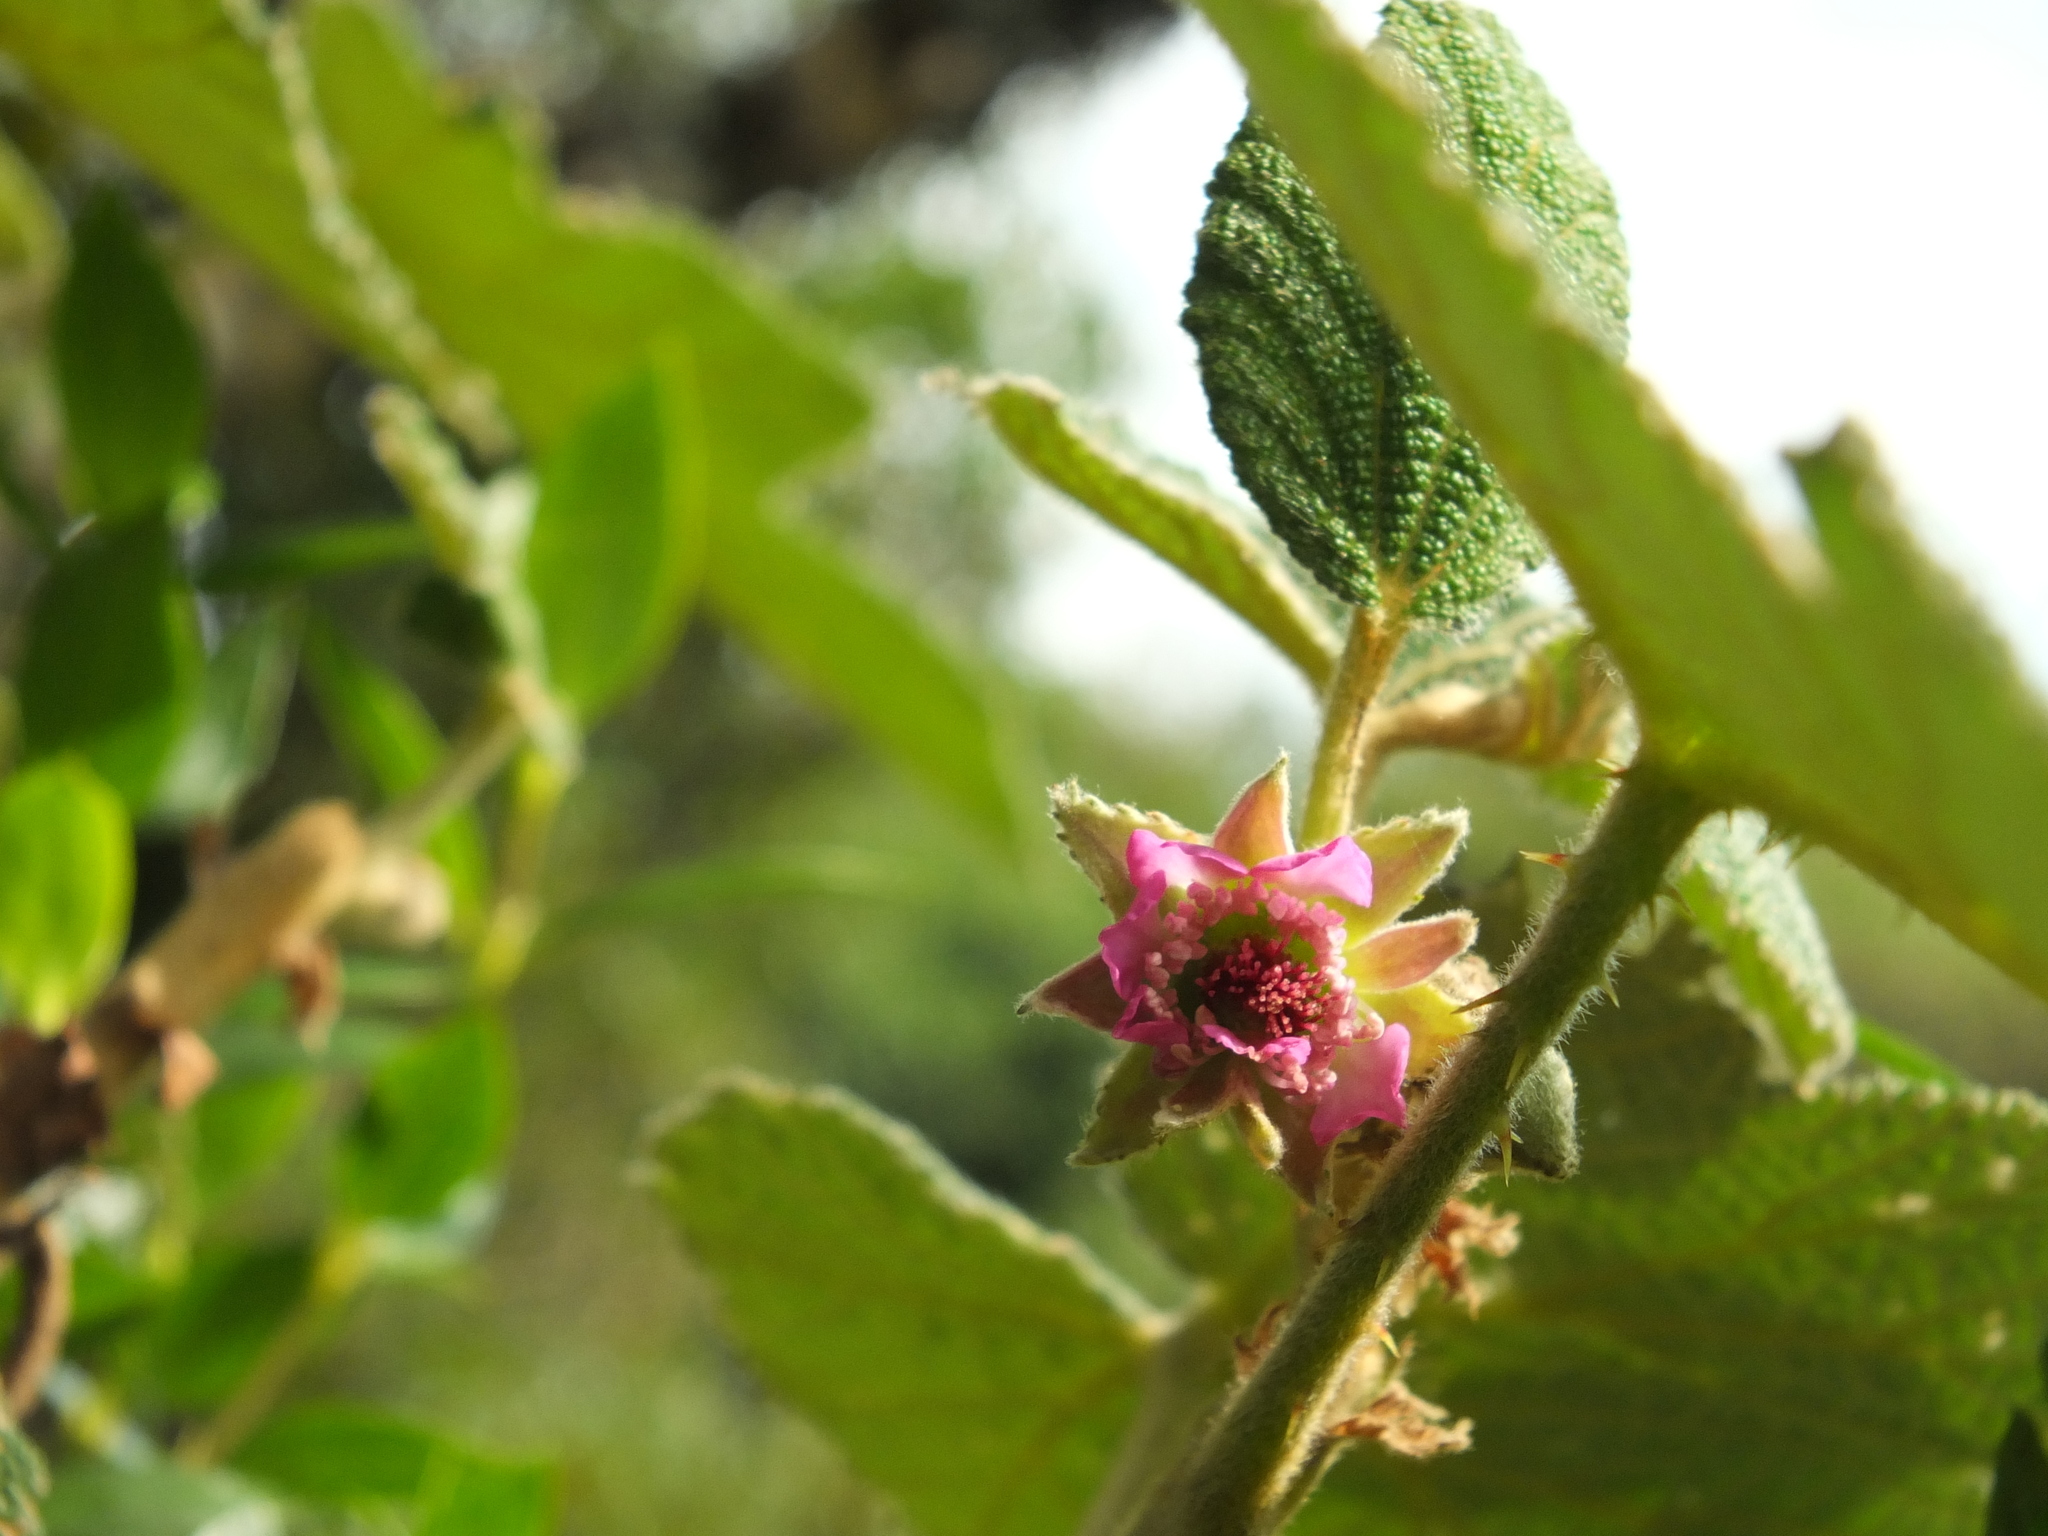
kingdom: Plantae
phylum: Tracheophyta
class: Magnoliopsida
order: Rosales
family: Rosaceae
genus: Rubus
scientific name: Rubus fairholmianus
